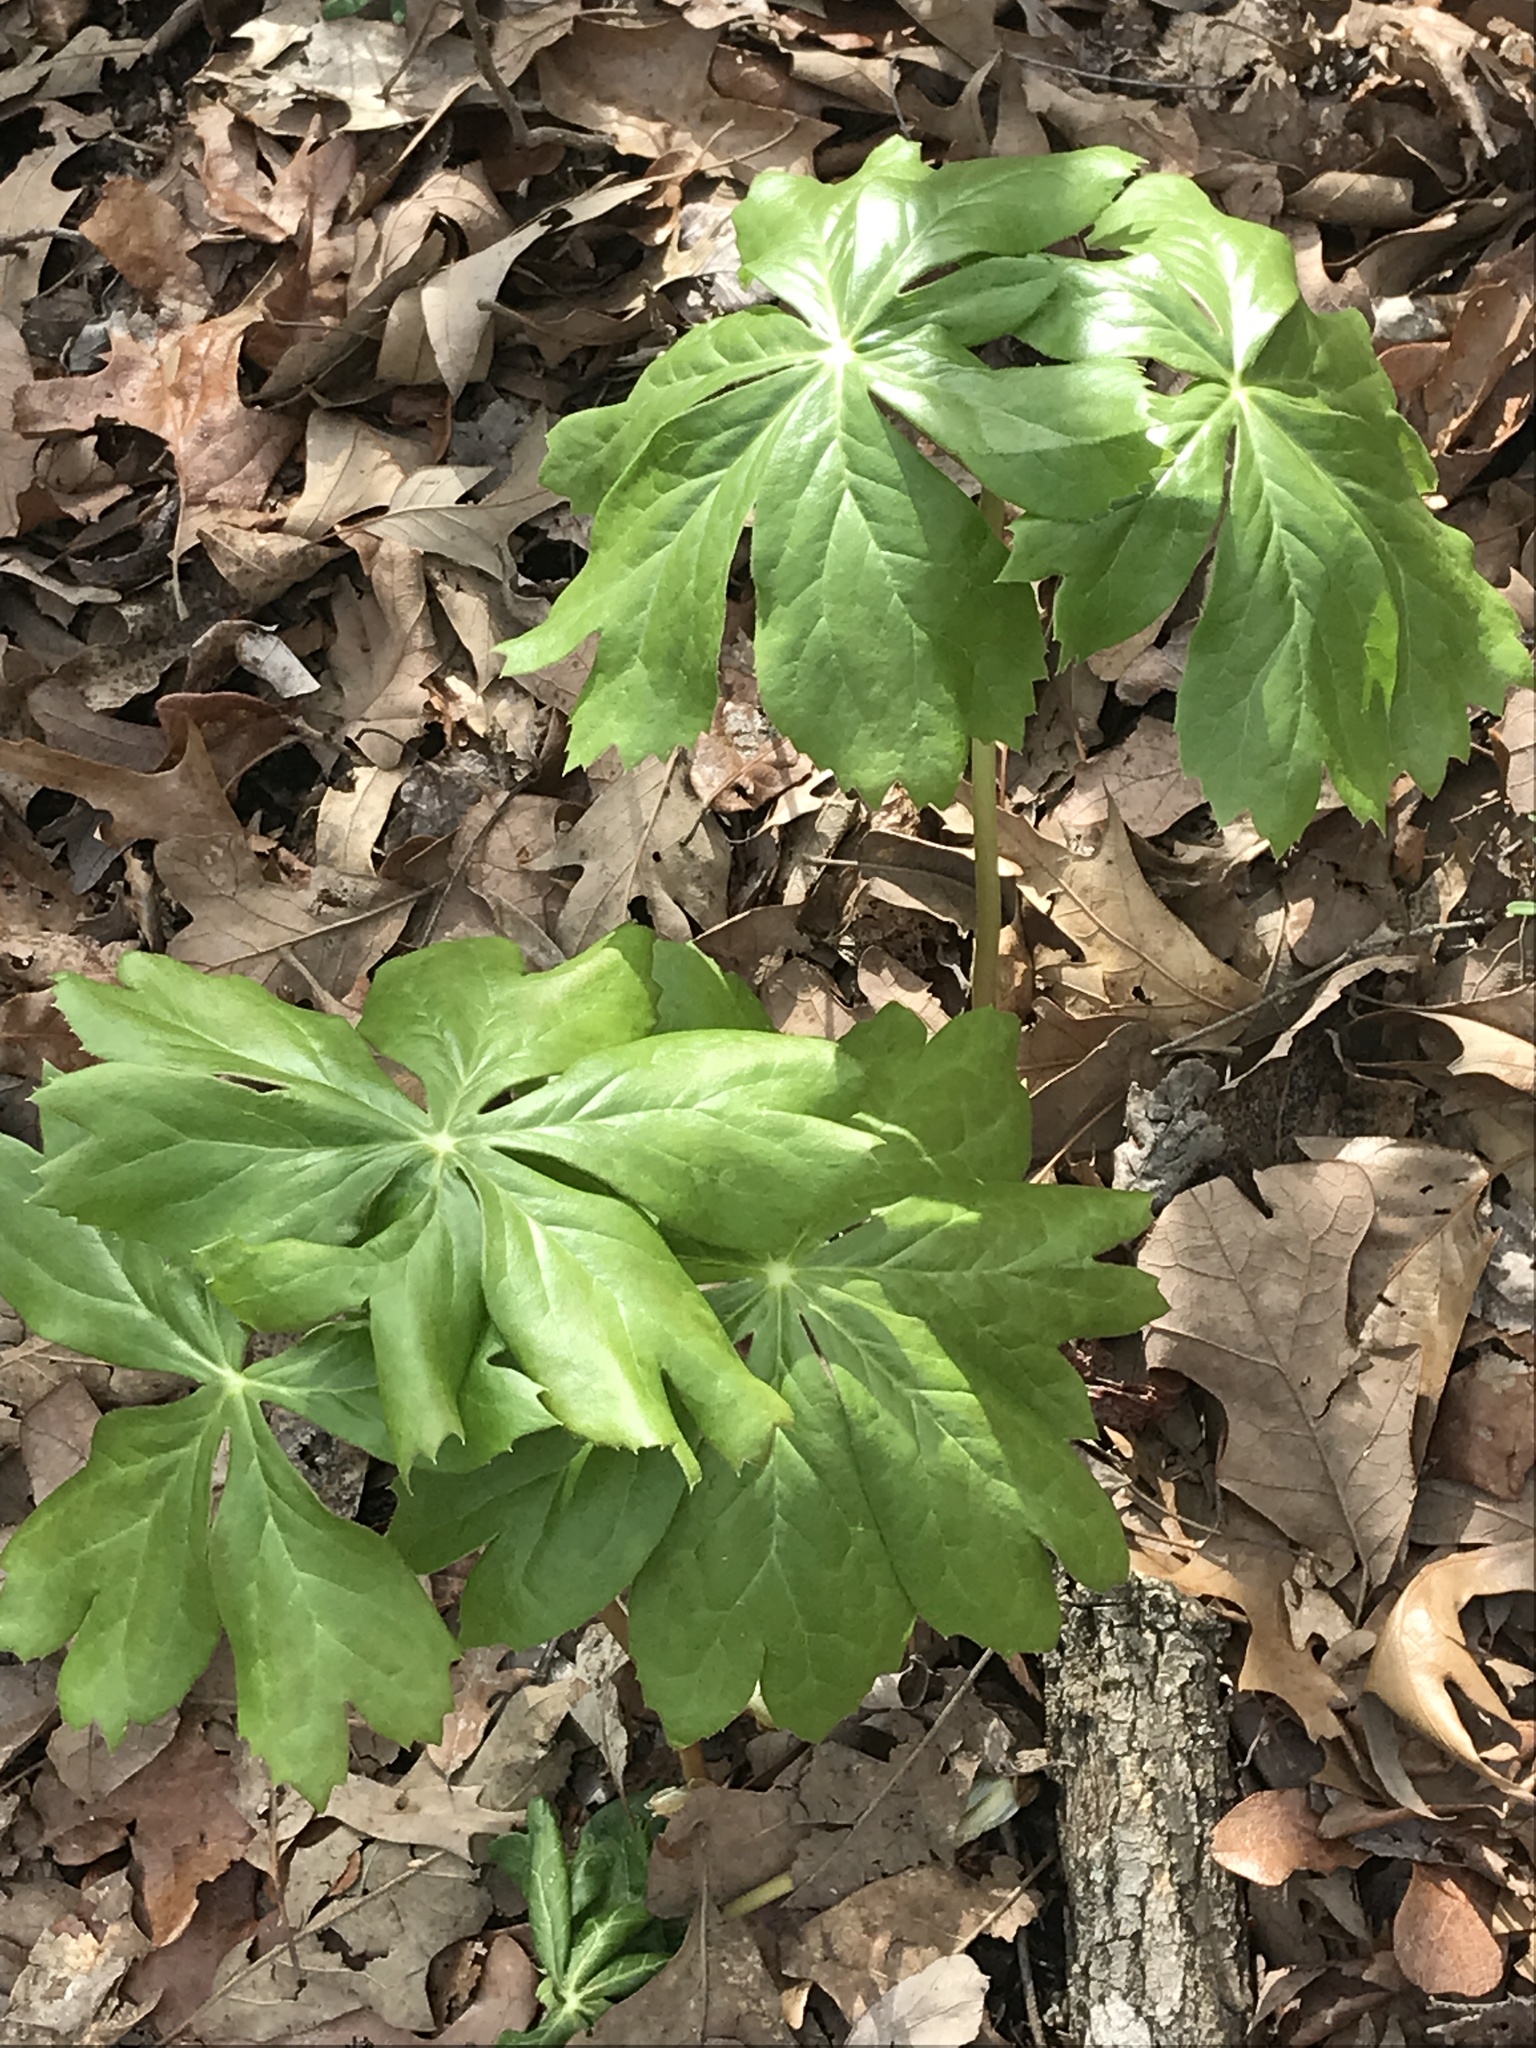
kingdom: Plantae
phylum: Tracheophyta
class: Magnoliopsida
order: Ranunculales
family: Berberidaceae
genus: Podophyllum
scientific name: Podophyllum peltatum
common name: Wild mandrake
